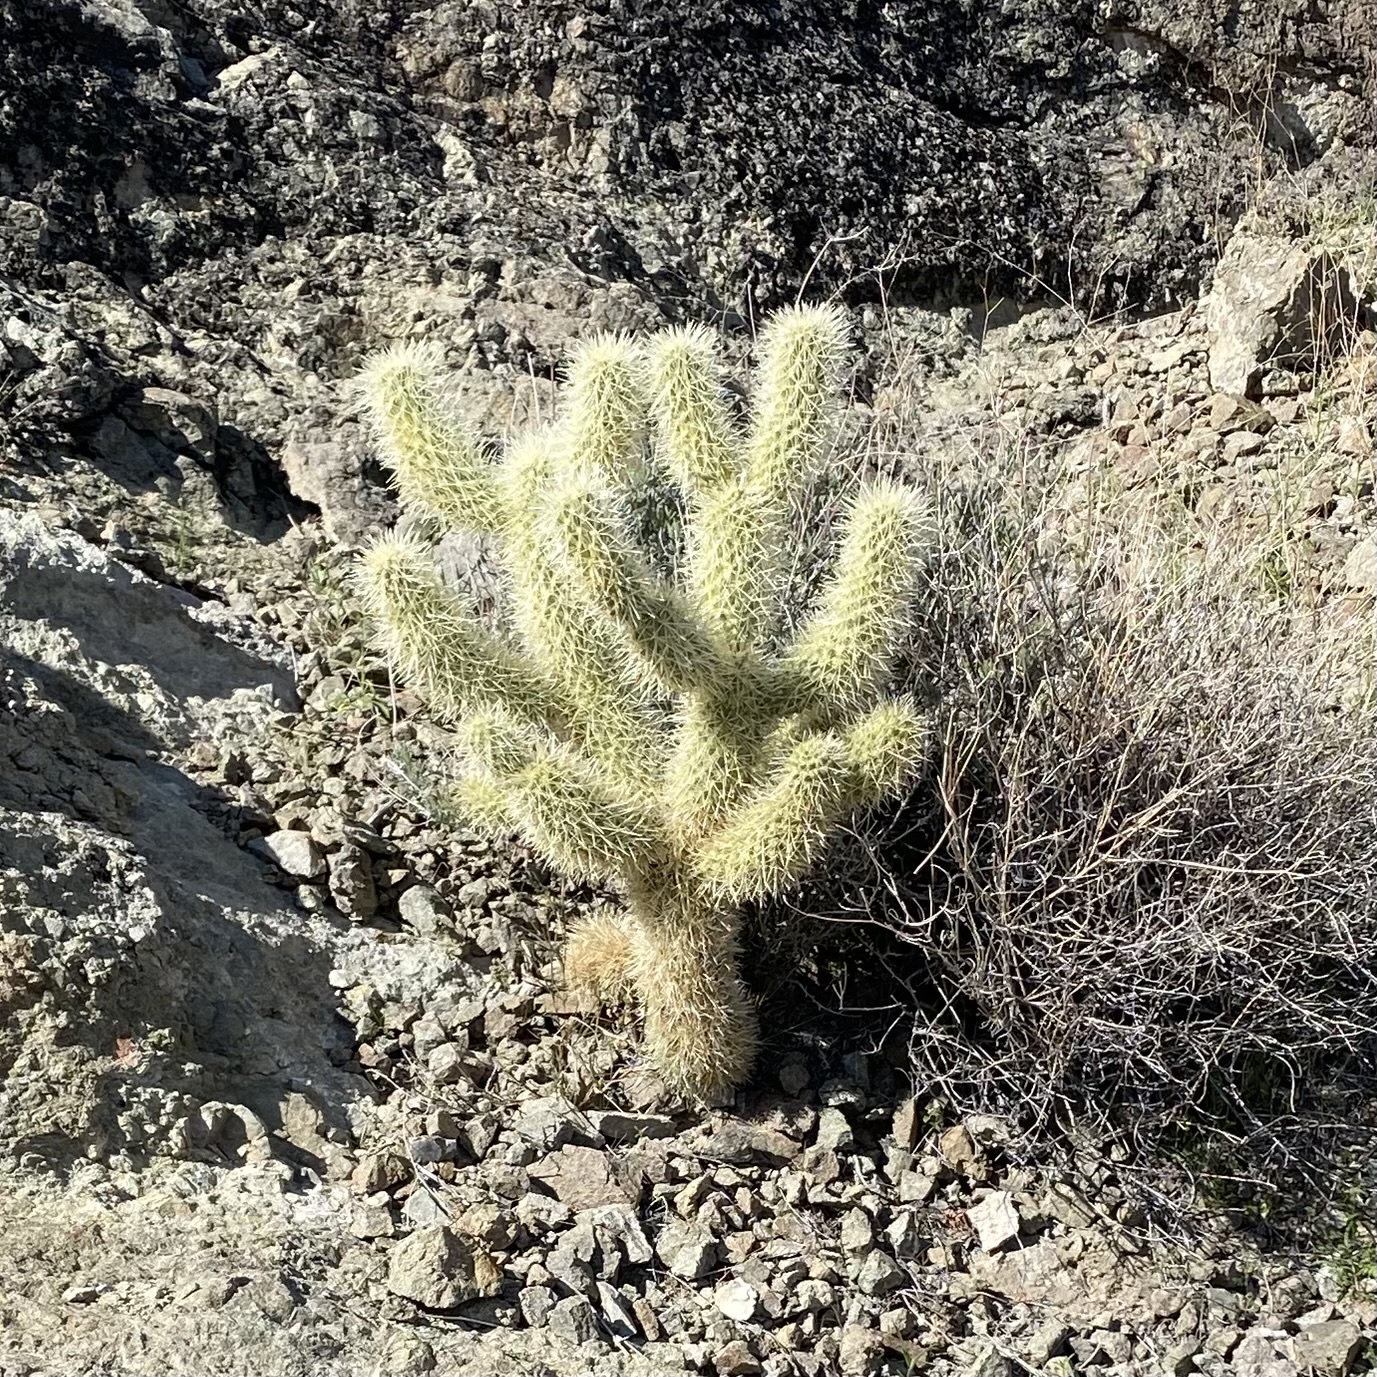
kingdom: Plantae
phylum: Tracheophyta
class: Magnoliopsida
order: Caryophyllales
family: Cactaceae
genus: Cylindropuntia
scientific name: Cylindropuntia fosbergii
